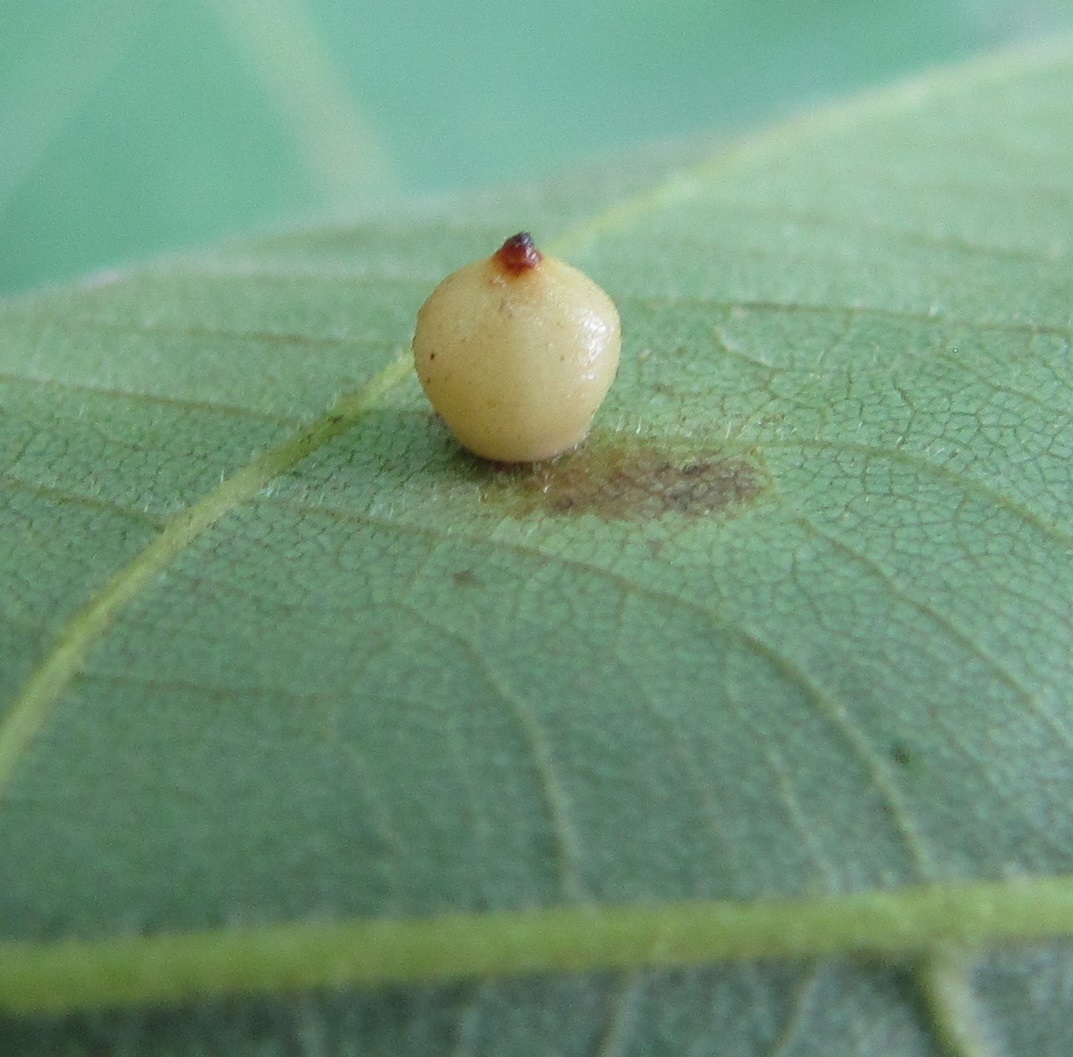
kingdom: Animalia
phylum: Arthropoda
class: Insecta
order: Diptera
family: Cecidomyiidae
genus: Caryomyia
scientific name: Caryomyia caryae
